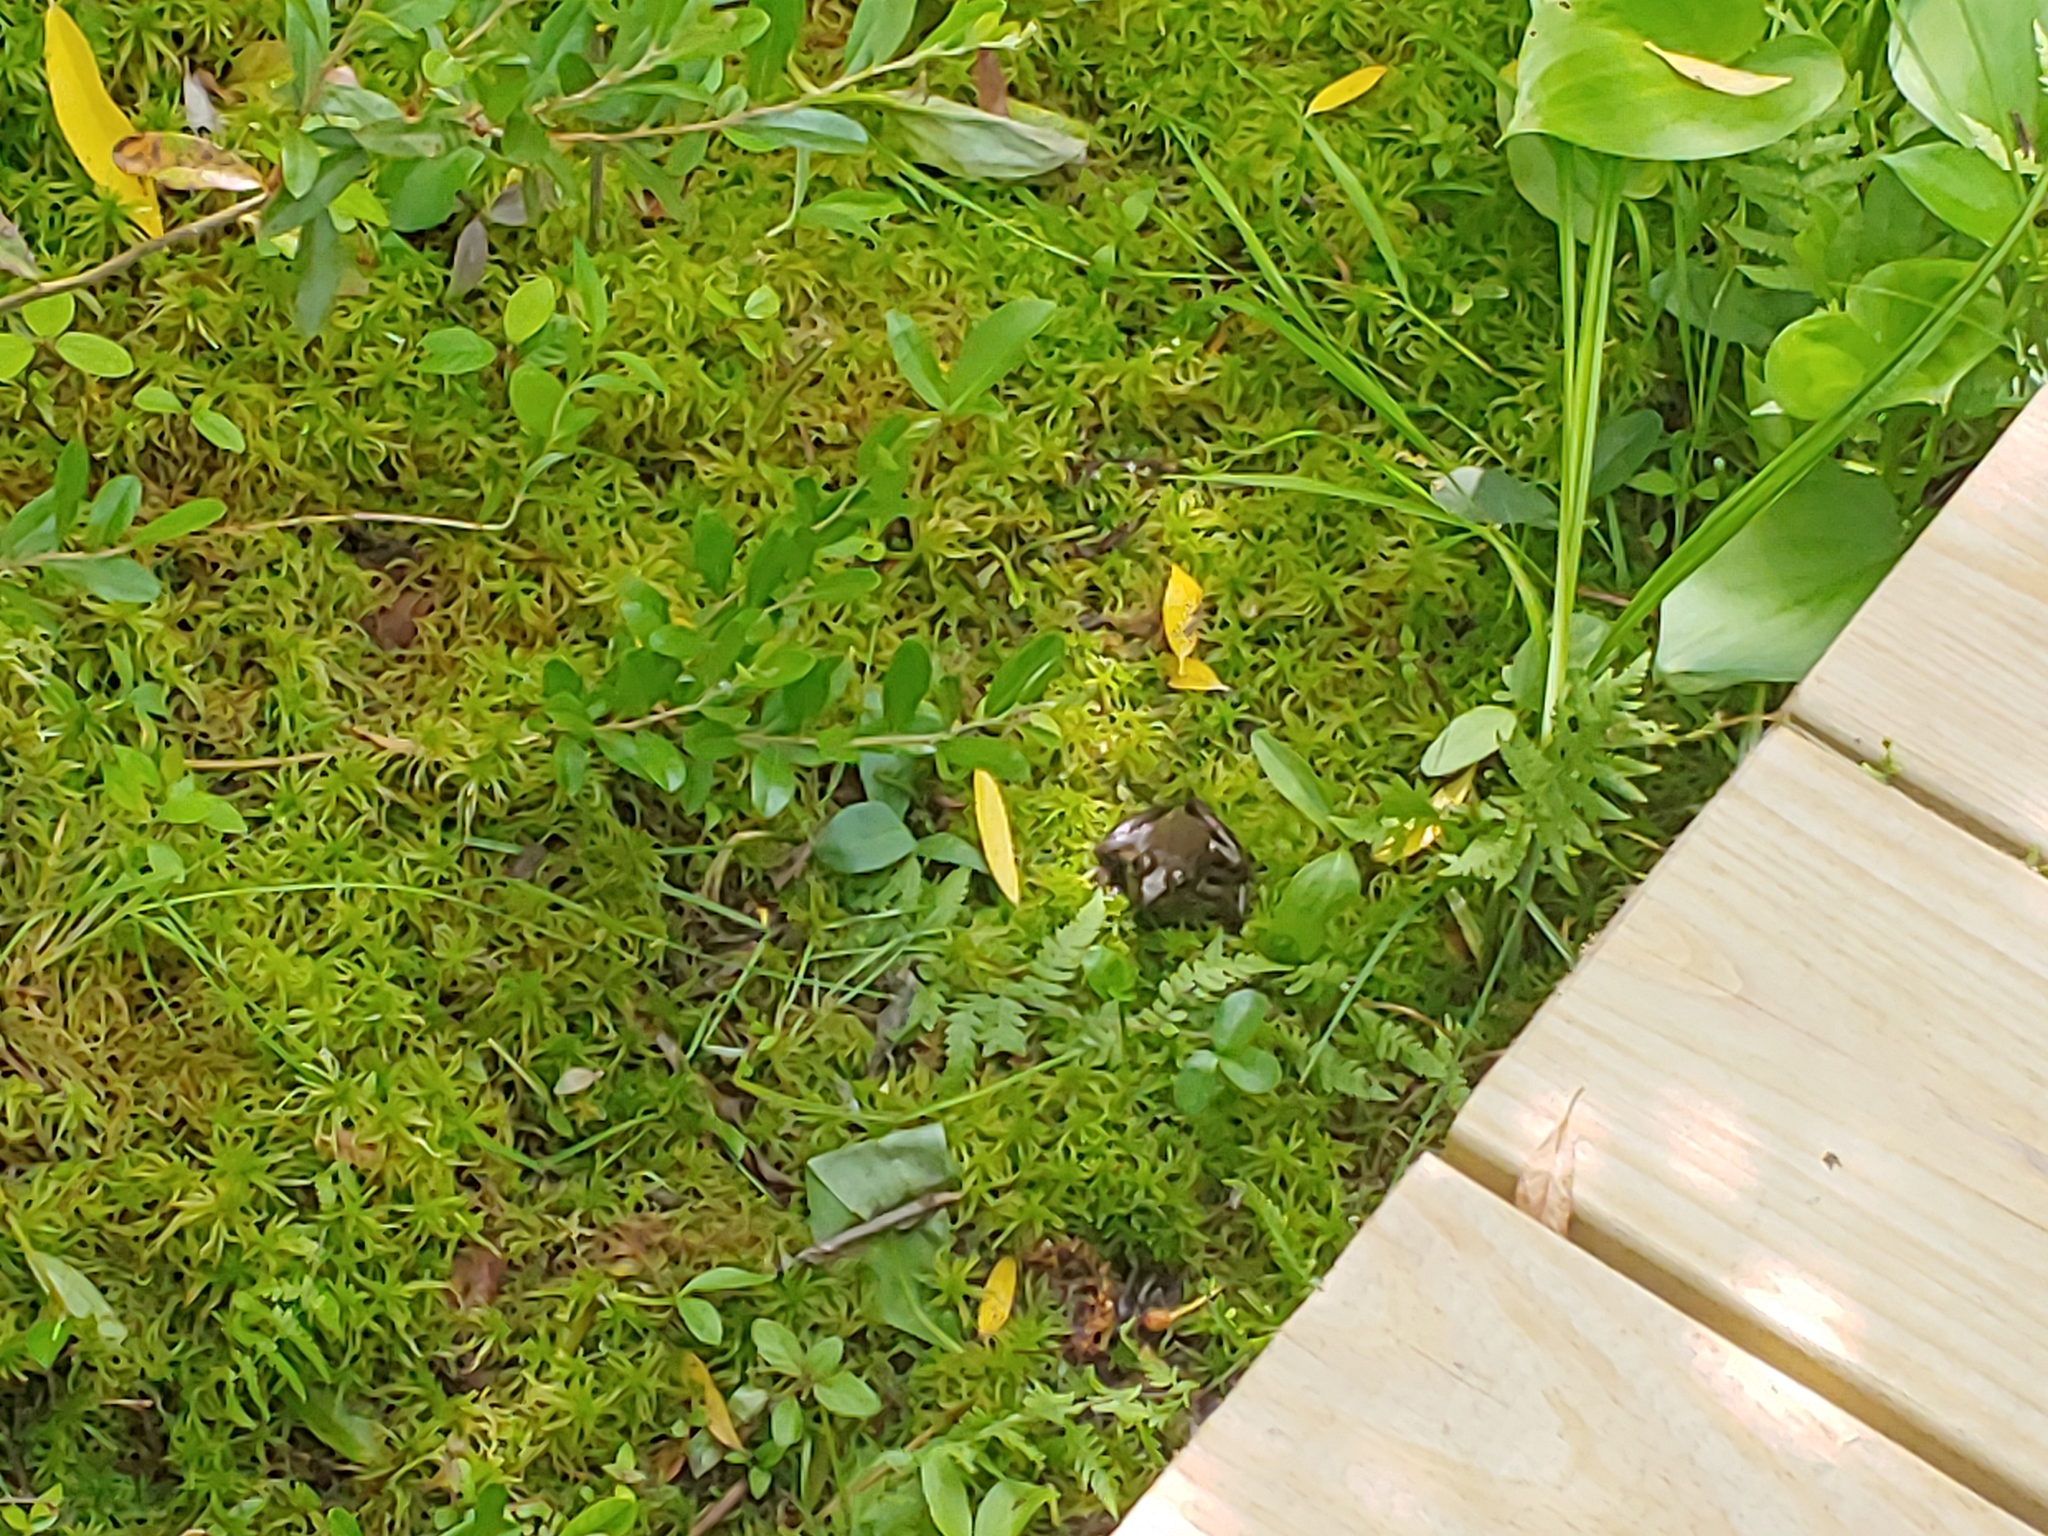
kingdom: Animalia
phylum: Chordata
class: Amphibia
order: Anura
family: Ranidae
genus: Lithobates
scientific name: Lithobates catesbeianus
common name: American bullfrog
